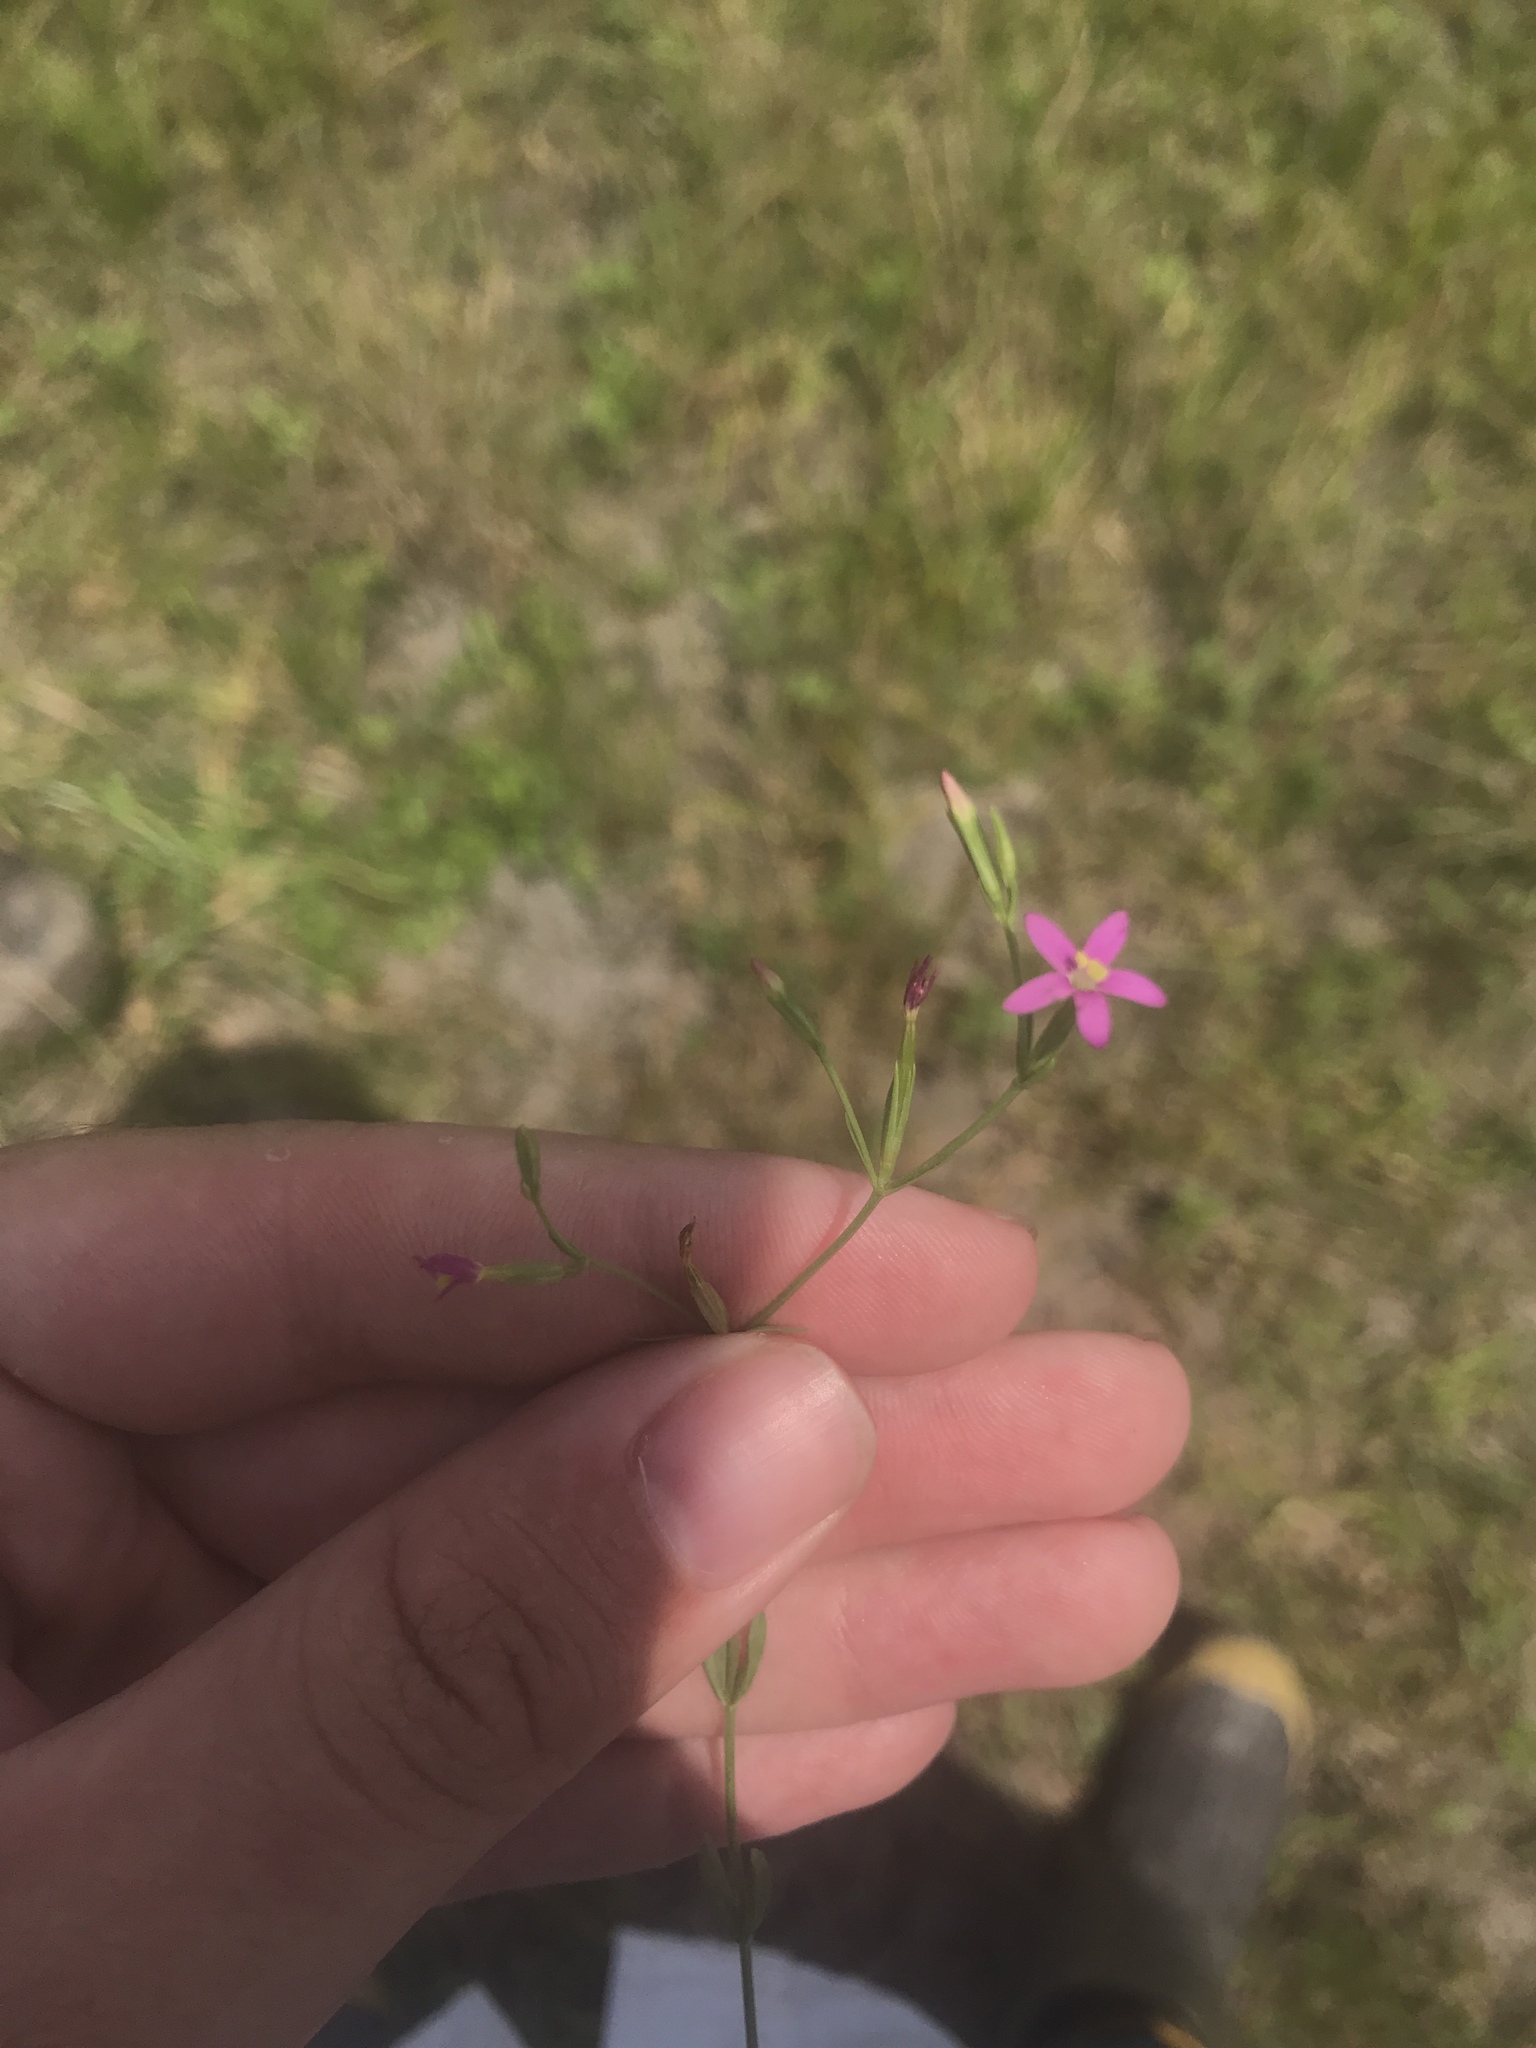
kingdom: Plantae
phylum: Tracheophyta
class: Magnoliopsida
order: Gentianales
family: Gentianaceae
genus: Centaurium
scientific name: Centaurium pulchellum
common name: Lesser centaury
